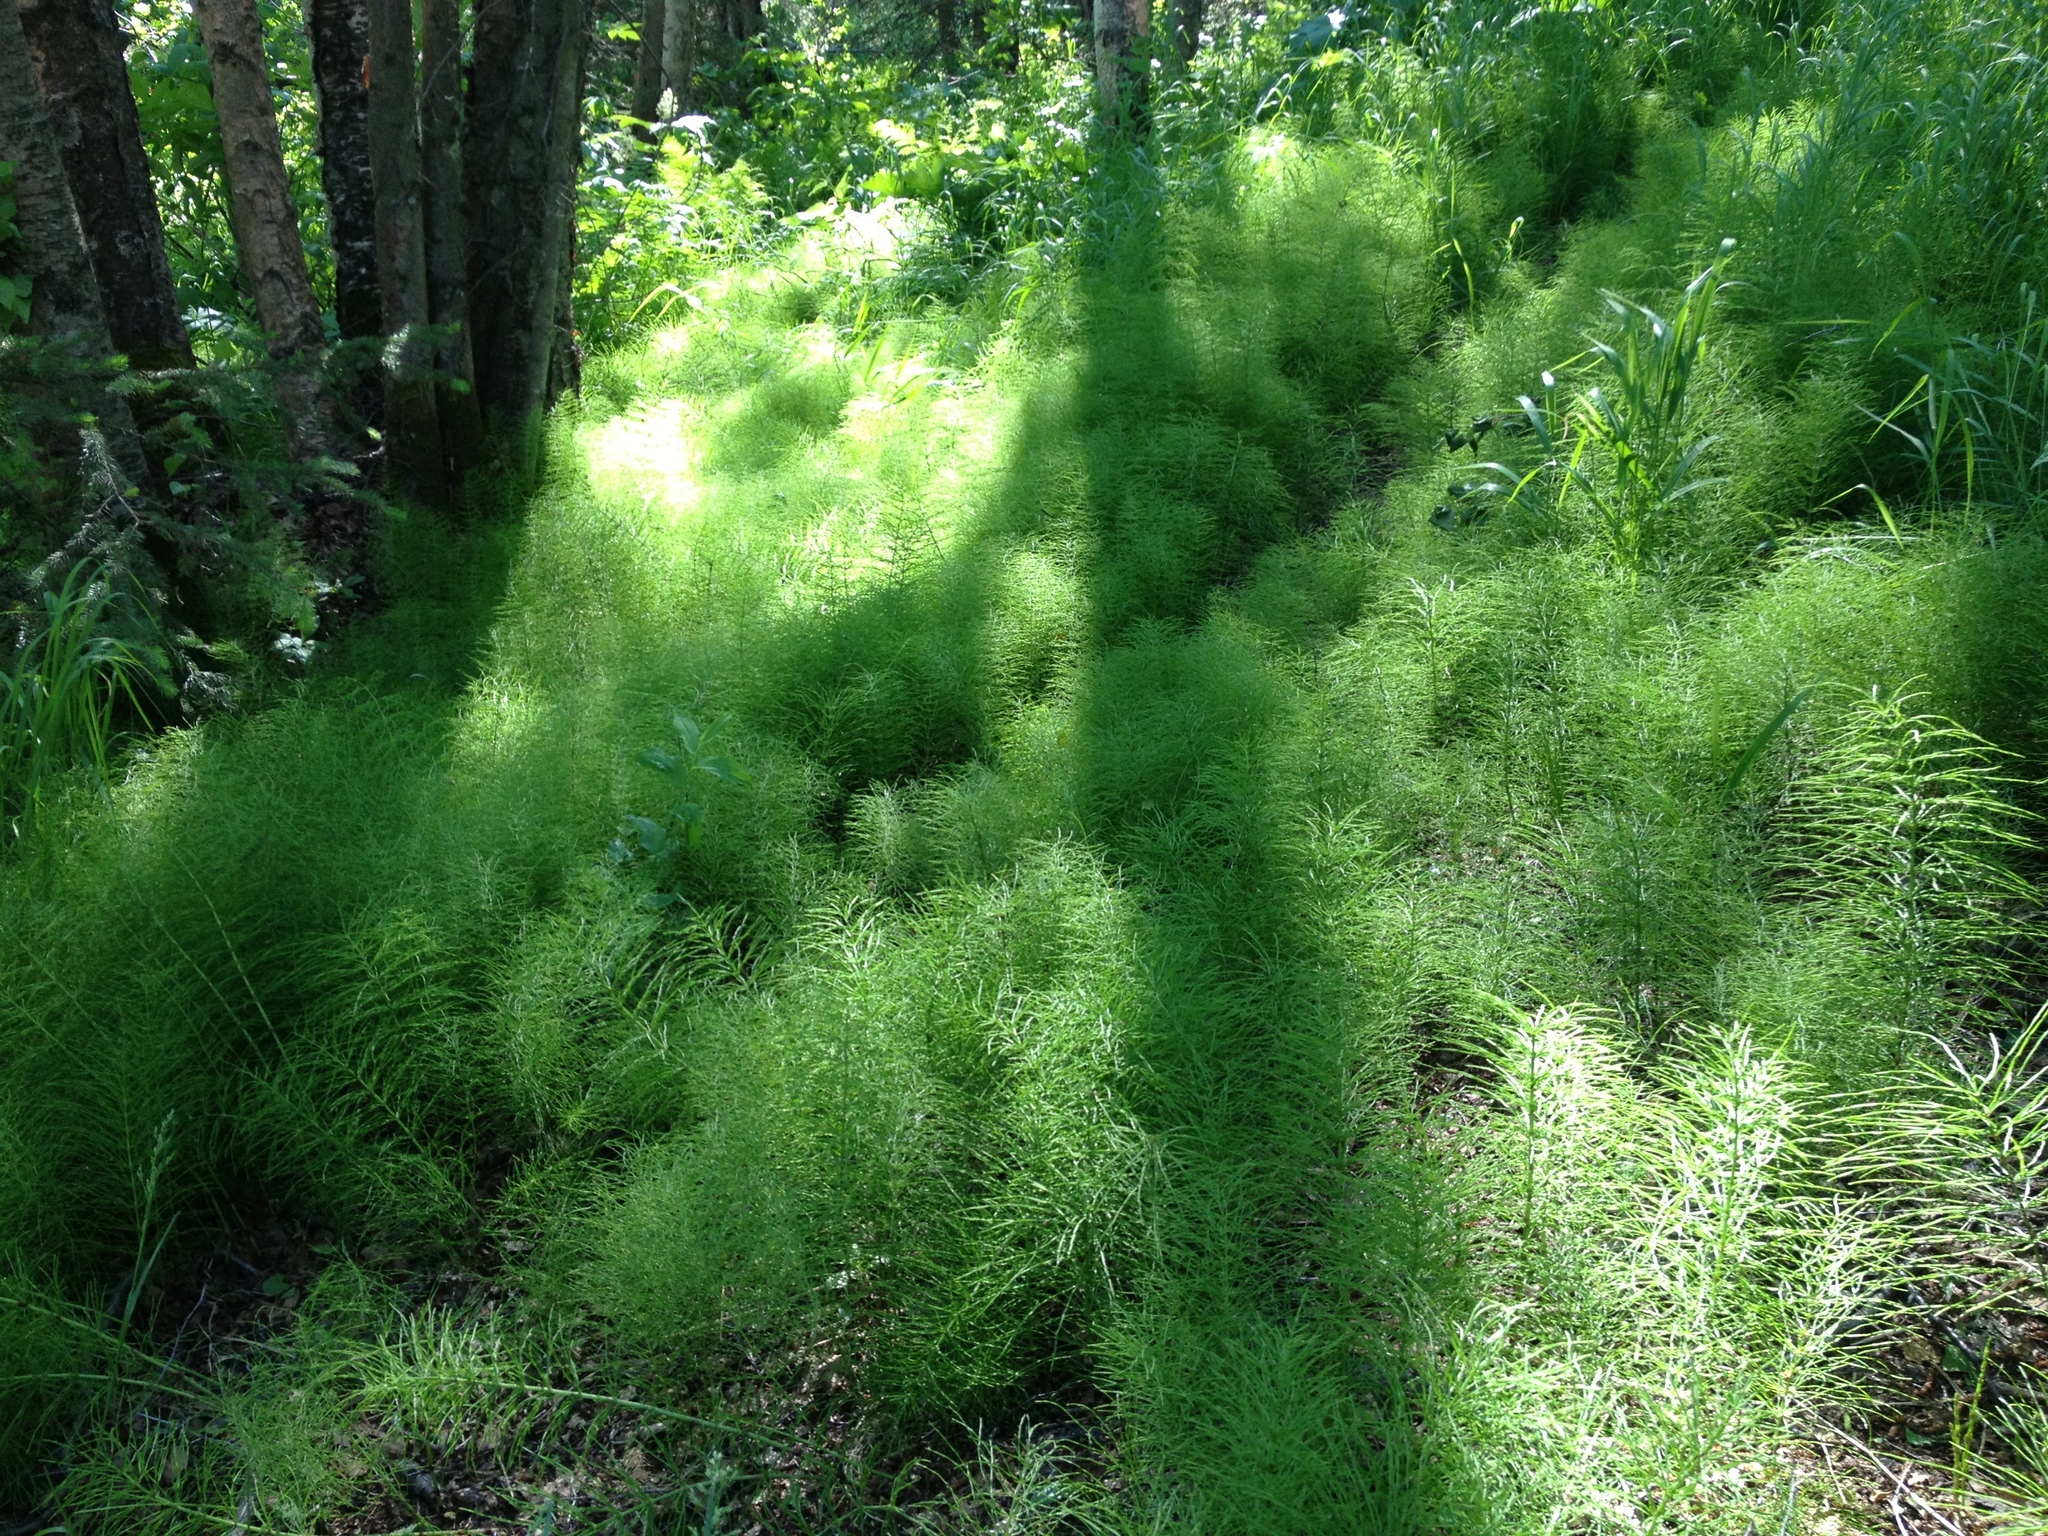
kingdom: Plantae
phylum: Tracheophyta
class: Polypodiopsida
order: Equisetales
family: Equisetaceae
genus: Equisetum
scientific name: Equisetum arvense
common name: Field horsetail
